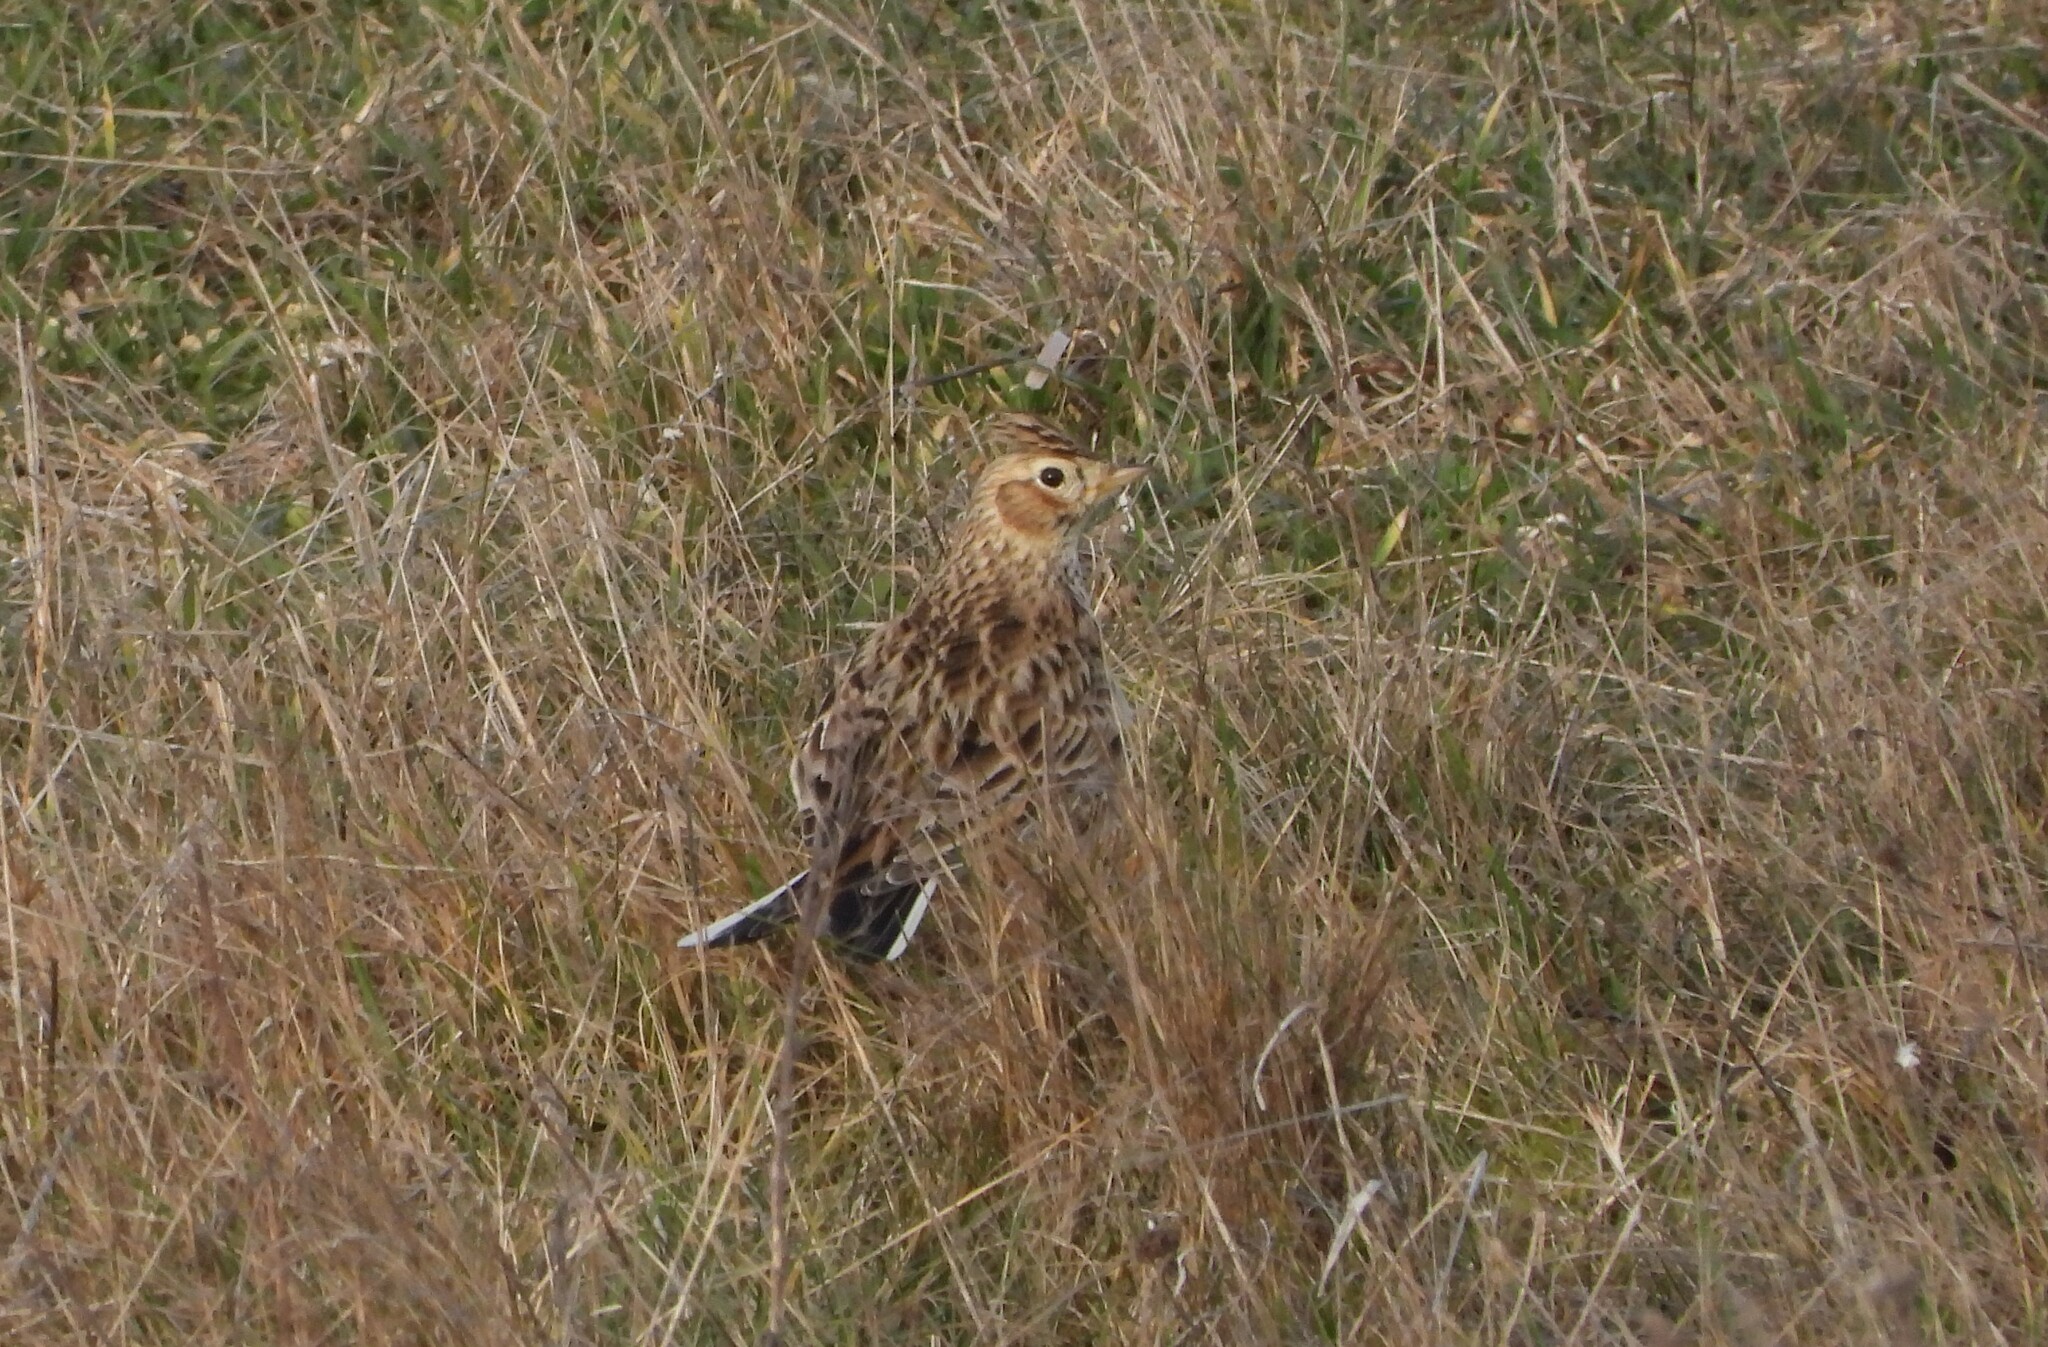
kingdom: Animalia
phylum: Chordata
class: Aves
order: Passeriformes
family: Alaudidae
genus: Alauda
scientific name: Alauda arvensis
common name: Eurasian skylark
